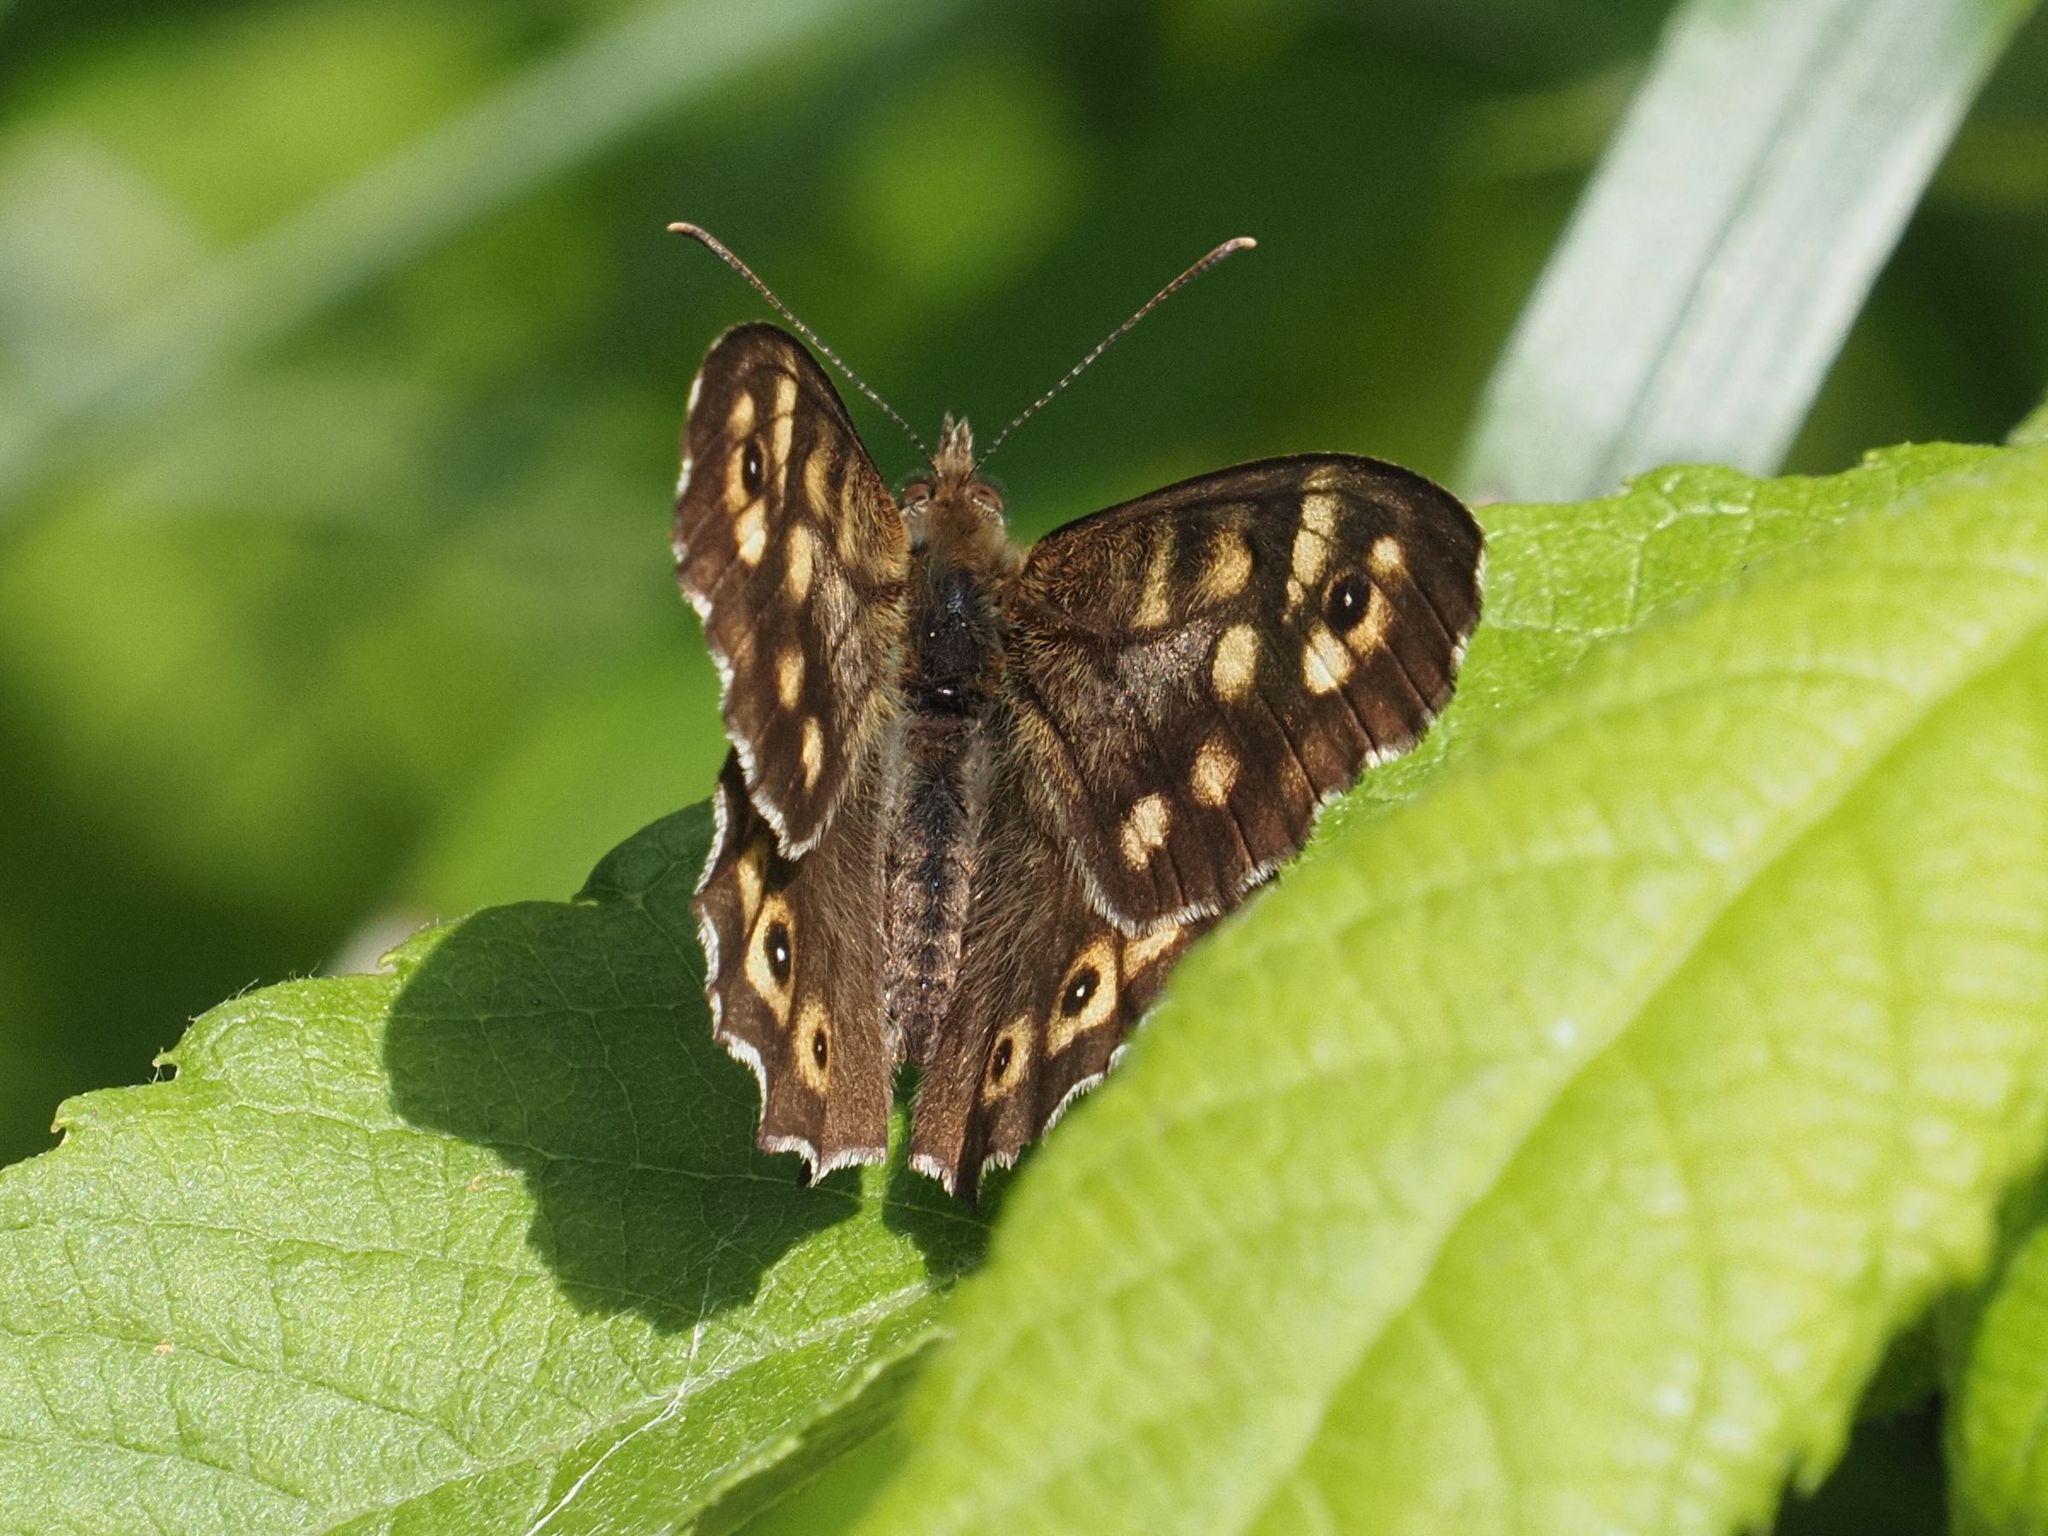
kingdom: Animalia
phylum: Arthropoda
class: Insecta
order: Lepidoptera
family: Nymphalidae
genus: Pararge
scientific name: Pararge aegeria
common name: Speckled wood
